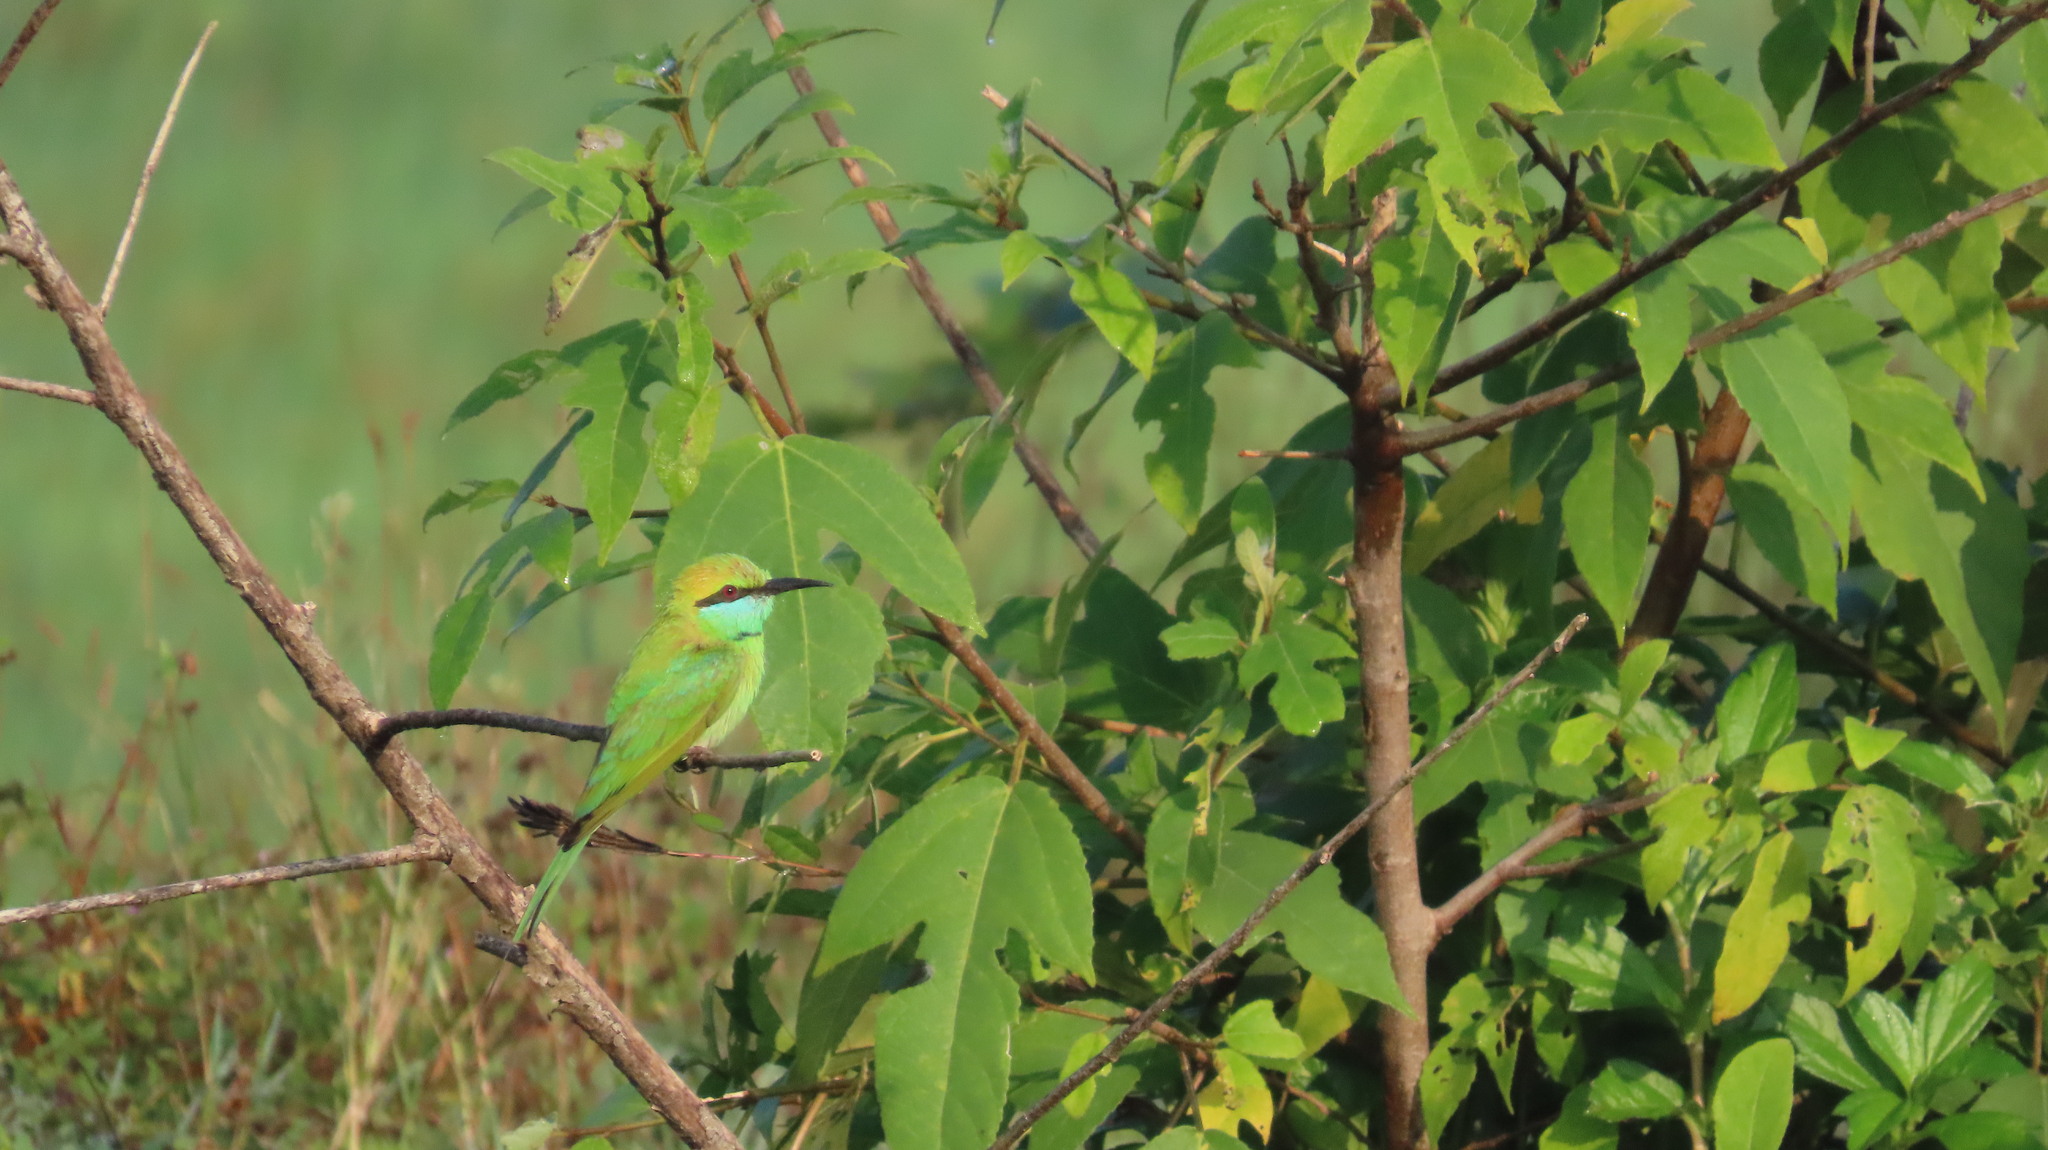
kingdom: Animalia
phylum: Chordata
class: Aves
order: Coraciiformes
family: Meropidae
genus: Merops
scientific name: Merops orientalis
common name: Green bee-eater
